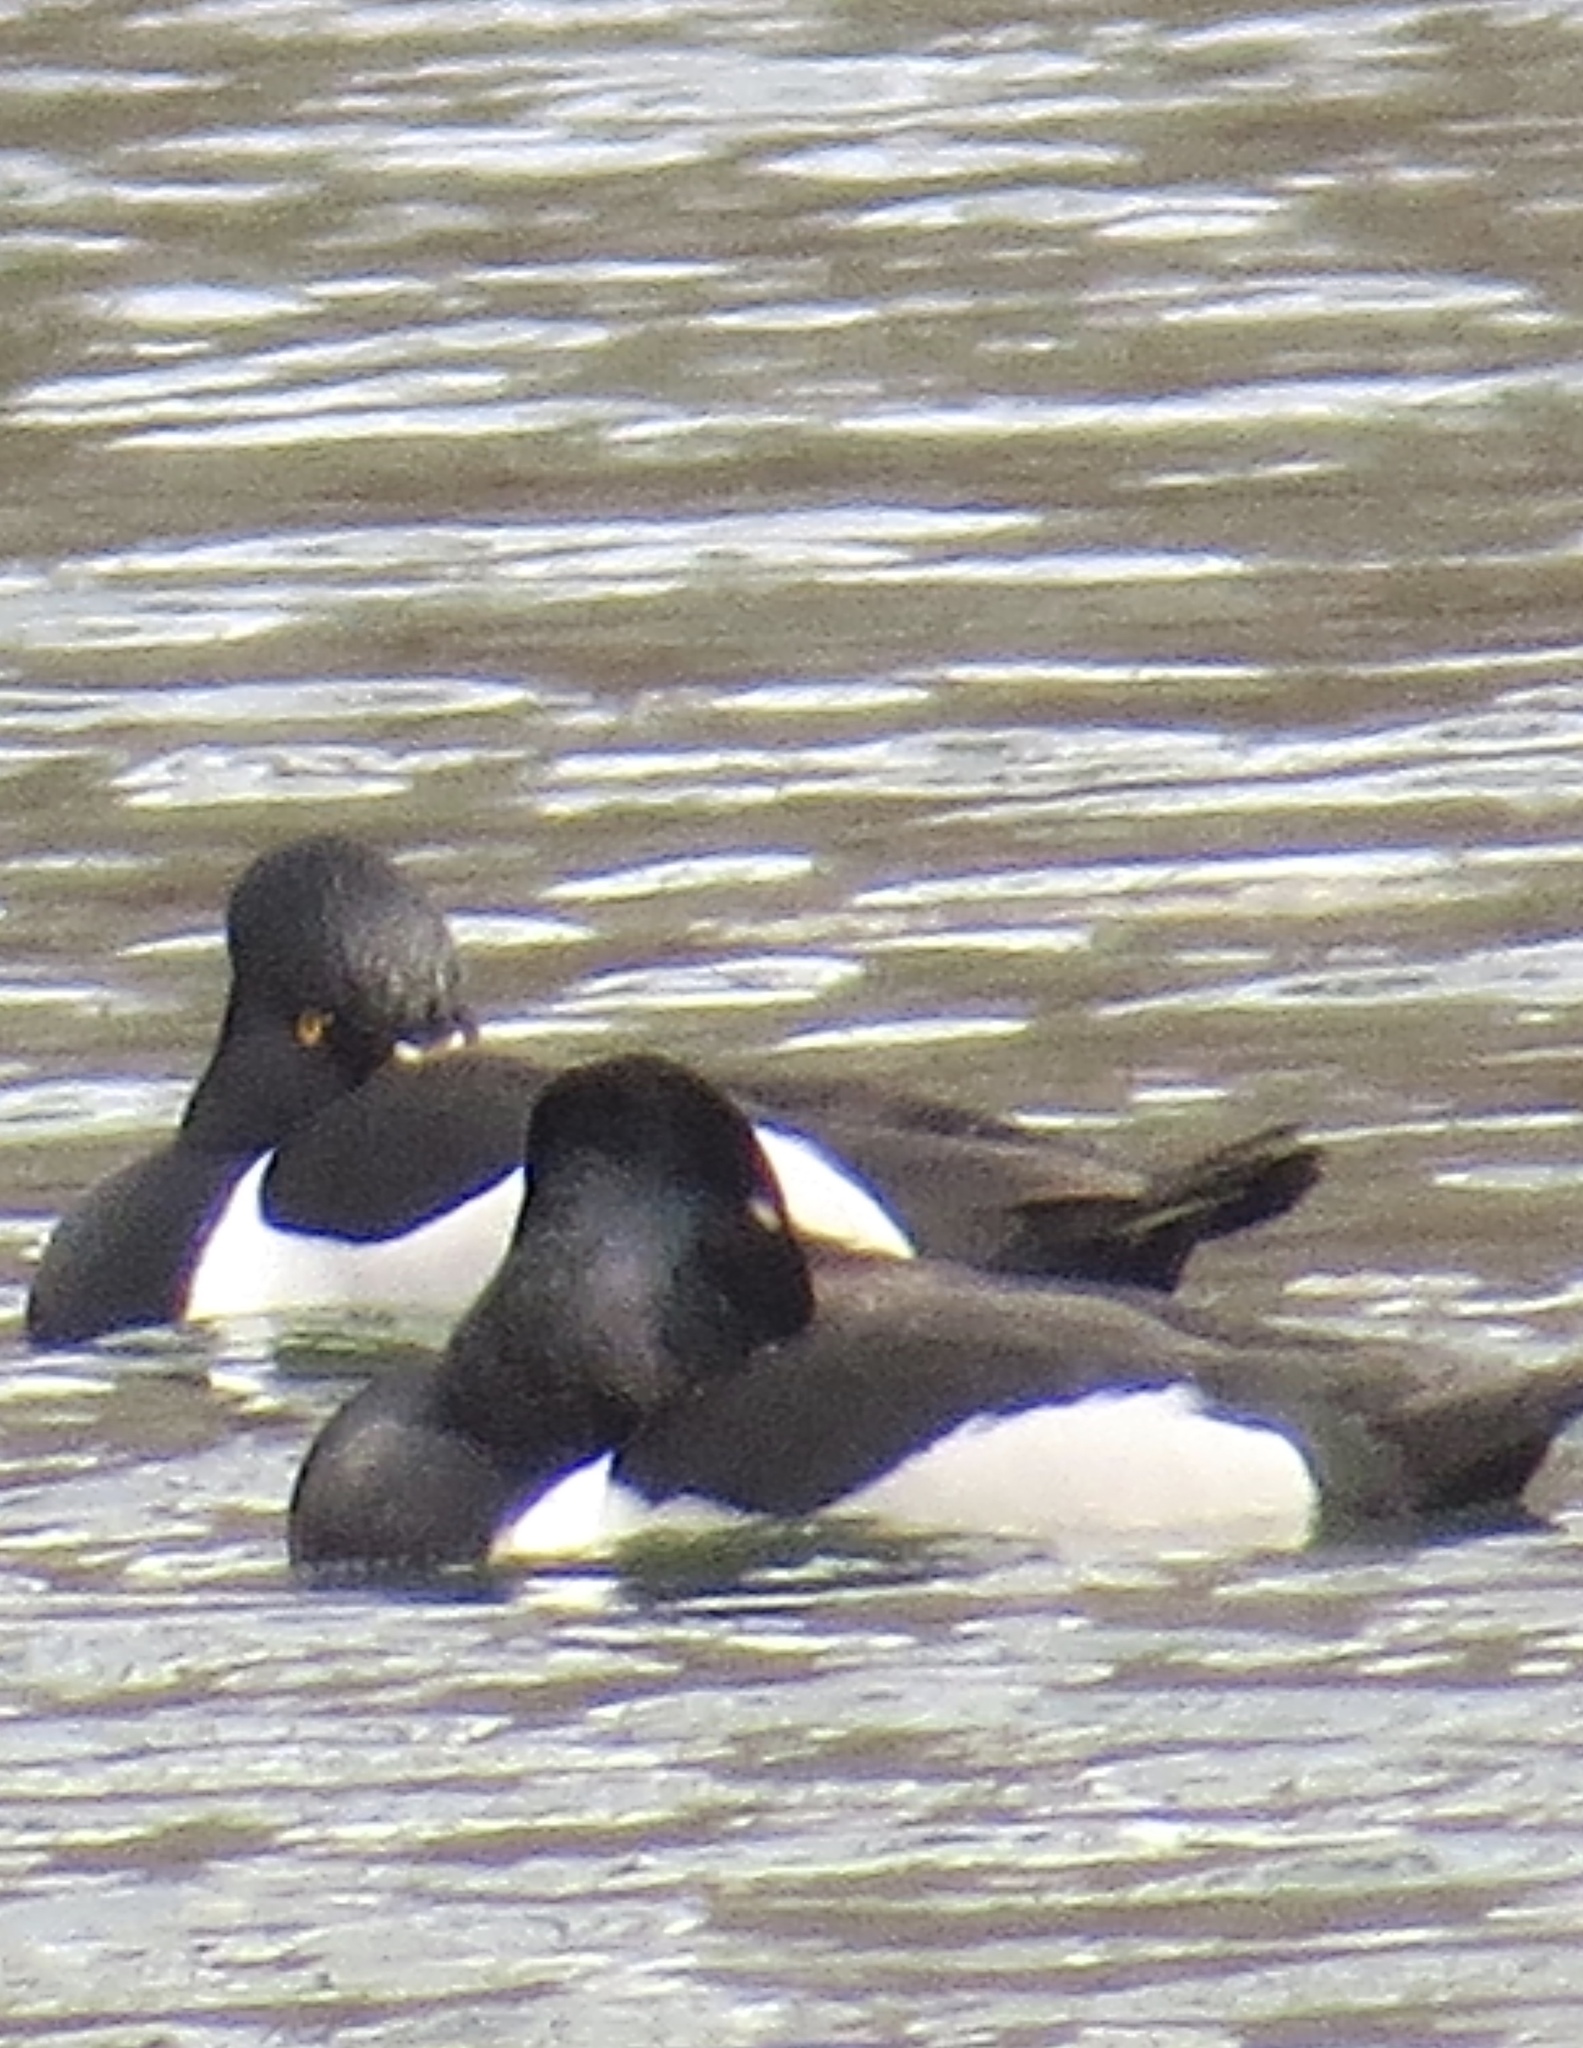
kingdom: Animalia
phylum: Chordata
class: Aves
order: Anseriformes
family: Anatidae
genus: Aythya
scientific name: Aythya collaris
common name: Ring-necked duck
